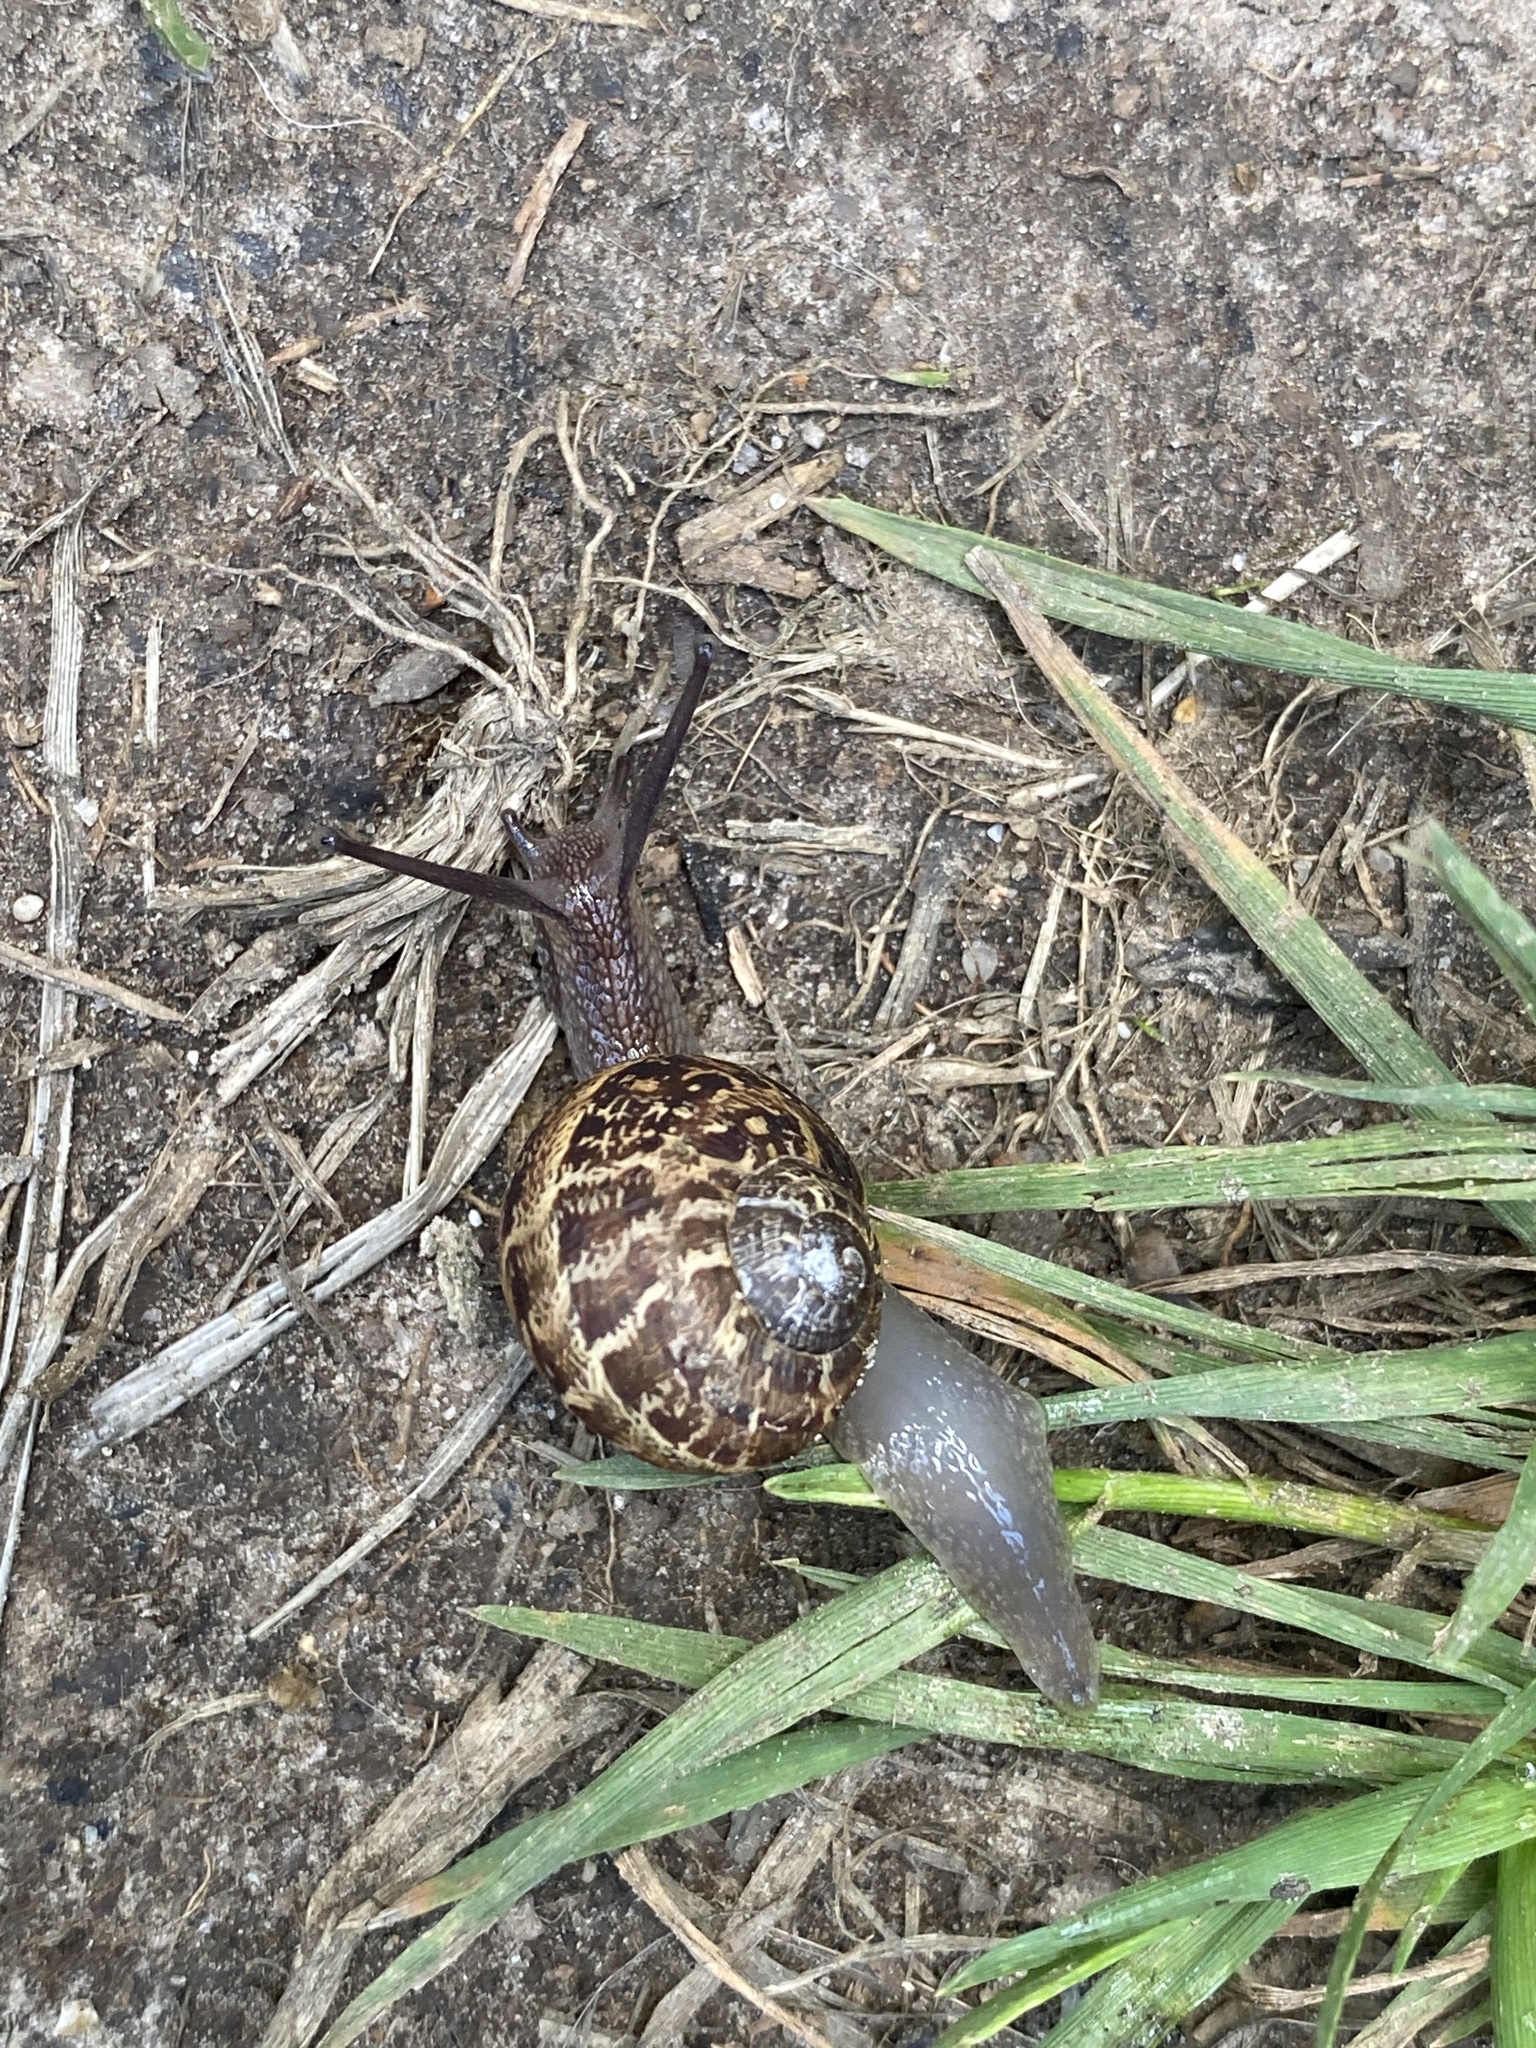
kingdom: Animalia
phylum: Mollusca
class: Gastropoda
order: Stylommatophora
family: Helicidae
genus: Cornu
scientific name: Cornu aspersum
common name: Brown garden snail
